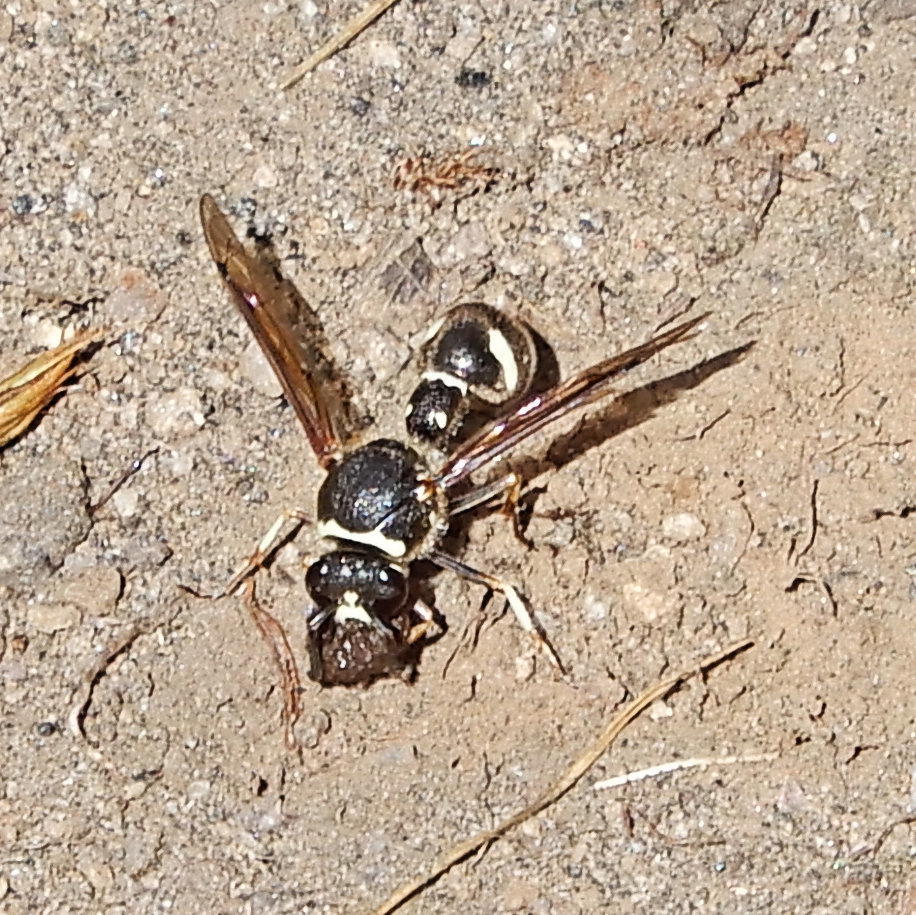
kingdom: Animalia
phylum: Arthropoda
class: Insecta
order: Hymenoptera
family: Vespidae
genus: Eumenes
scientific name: Eumenes crucifera
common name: Cross potter wasp
